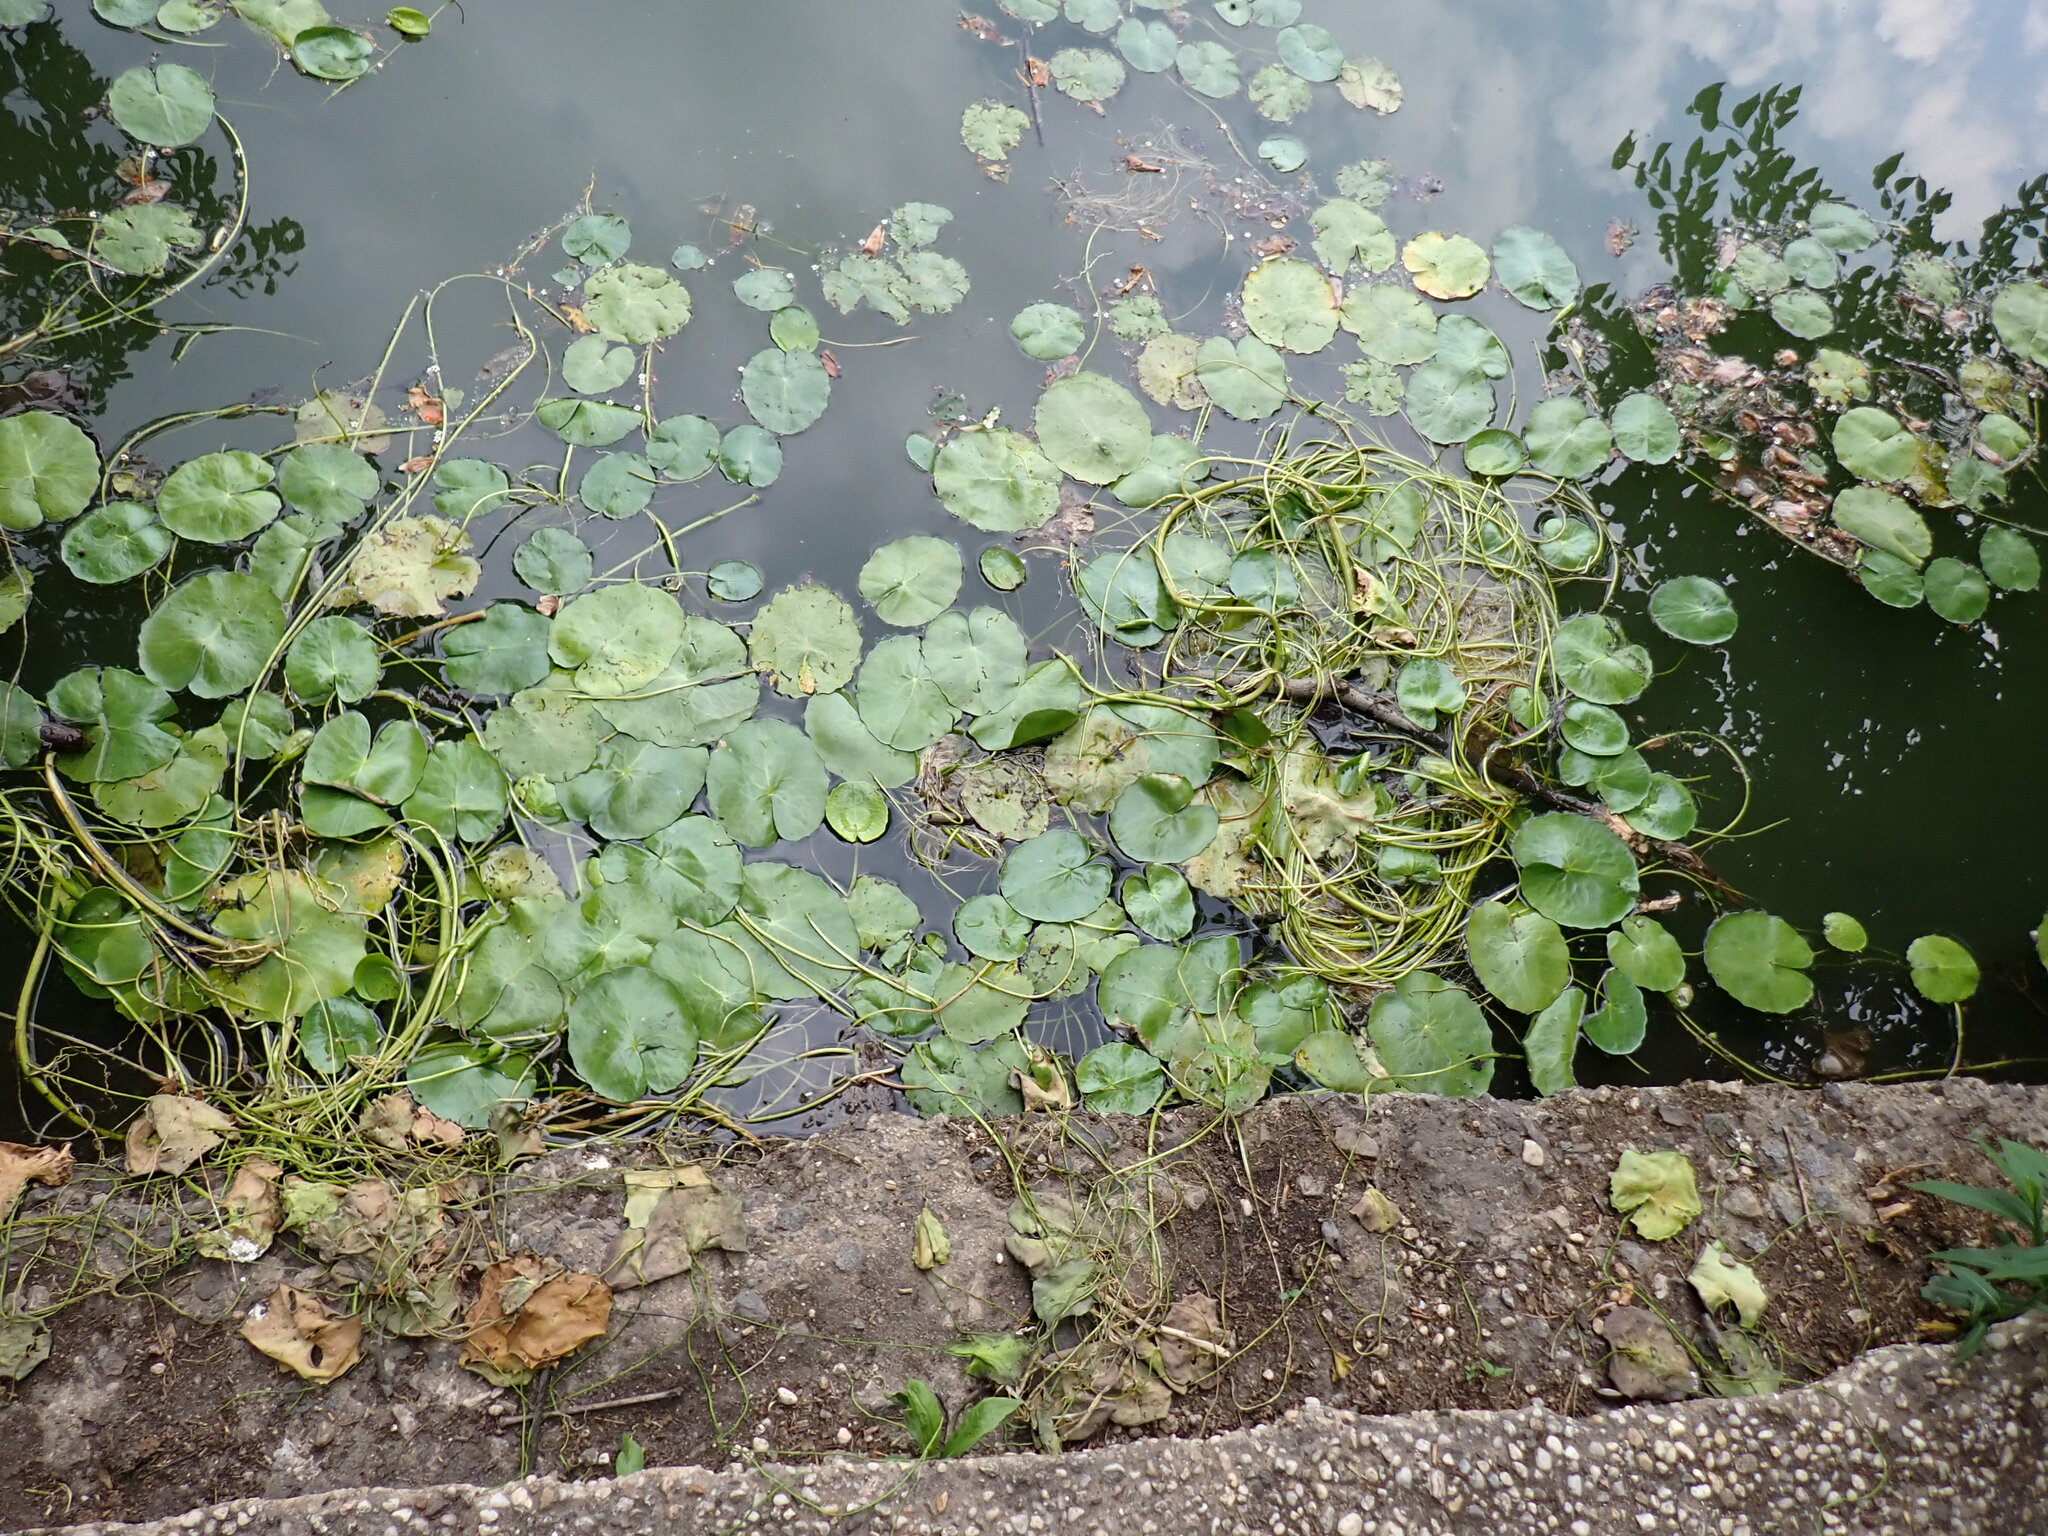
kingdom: Plantae
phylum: Tracheophyta
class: Magnoliopsida
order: Asterales
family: Menyanthaceae
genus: Nymphoides
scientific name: Nymphoides peltata
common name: Fringed water-lily
